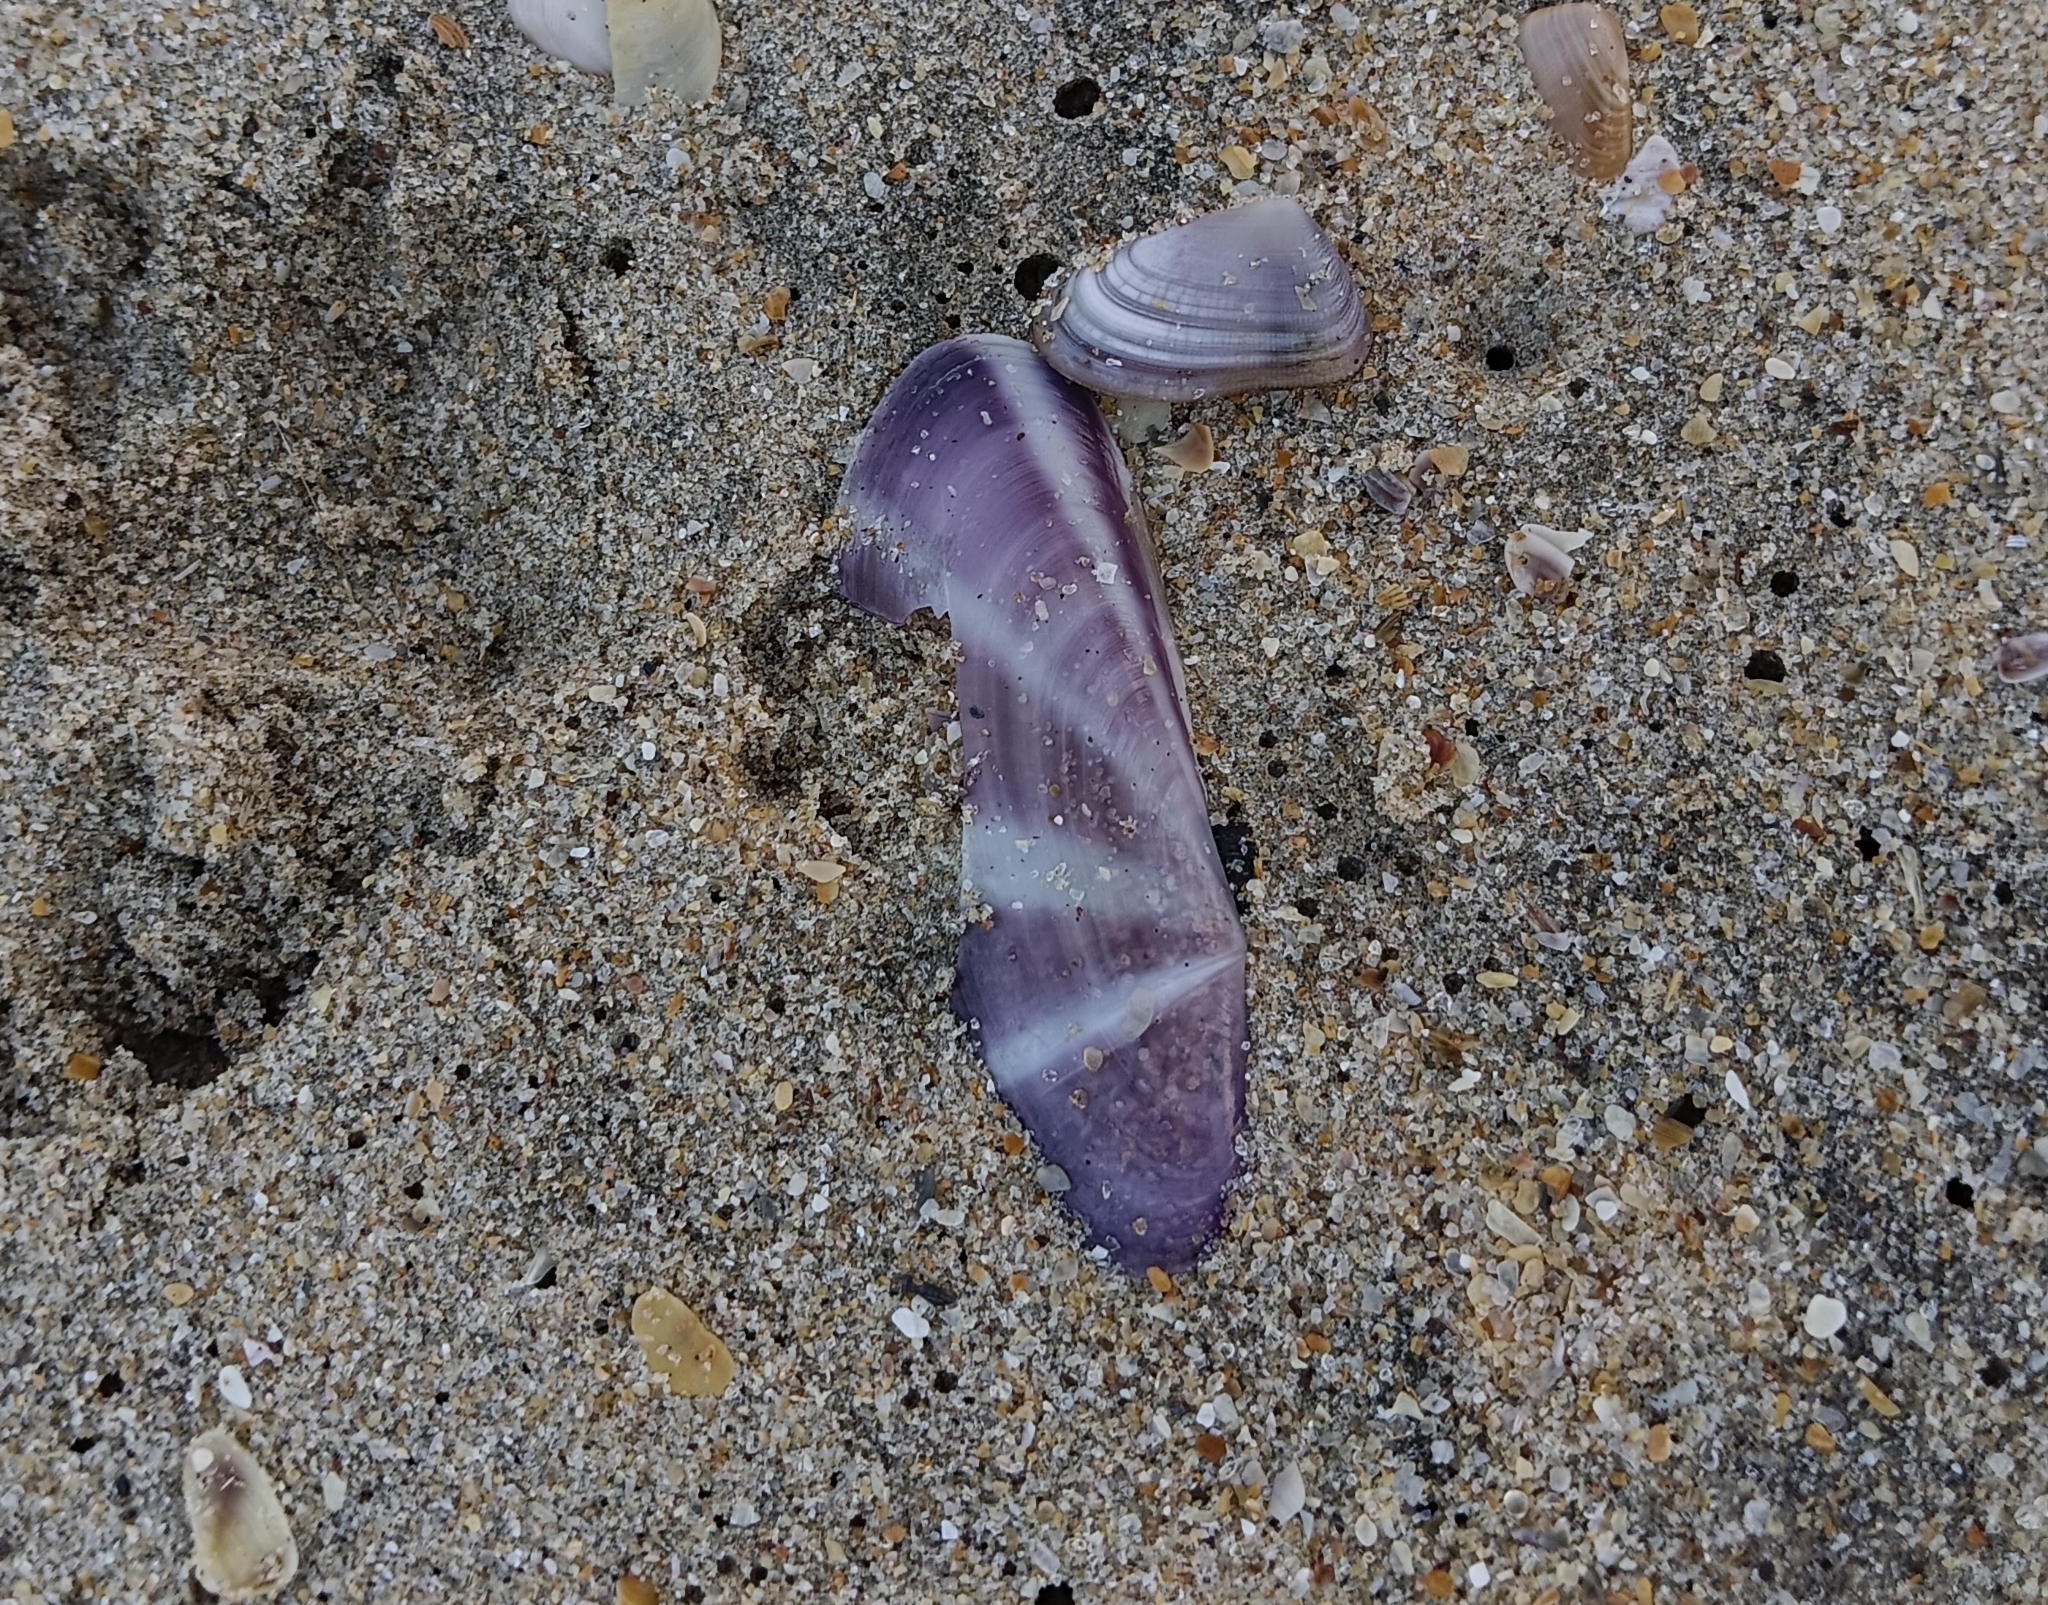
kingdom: Animalia
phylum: Mollusca
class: Bivalvia
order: Adapedonta
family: Pharidae
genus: Siliqua
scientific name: Siliqua radiata
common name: Sunset razor clam
